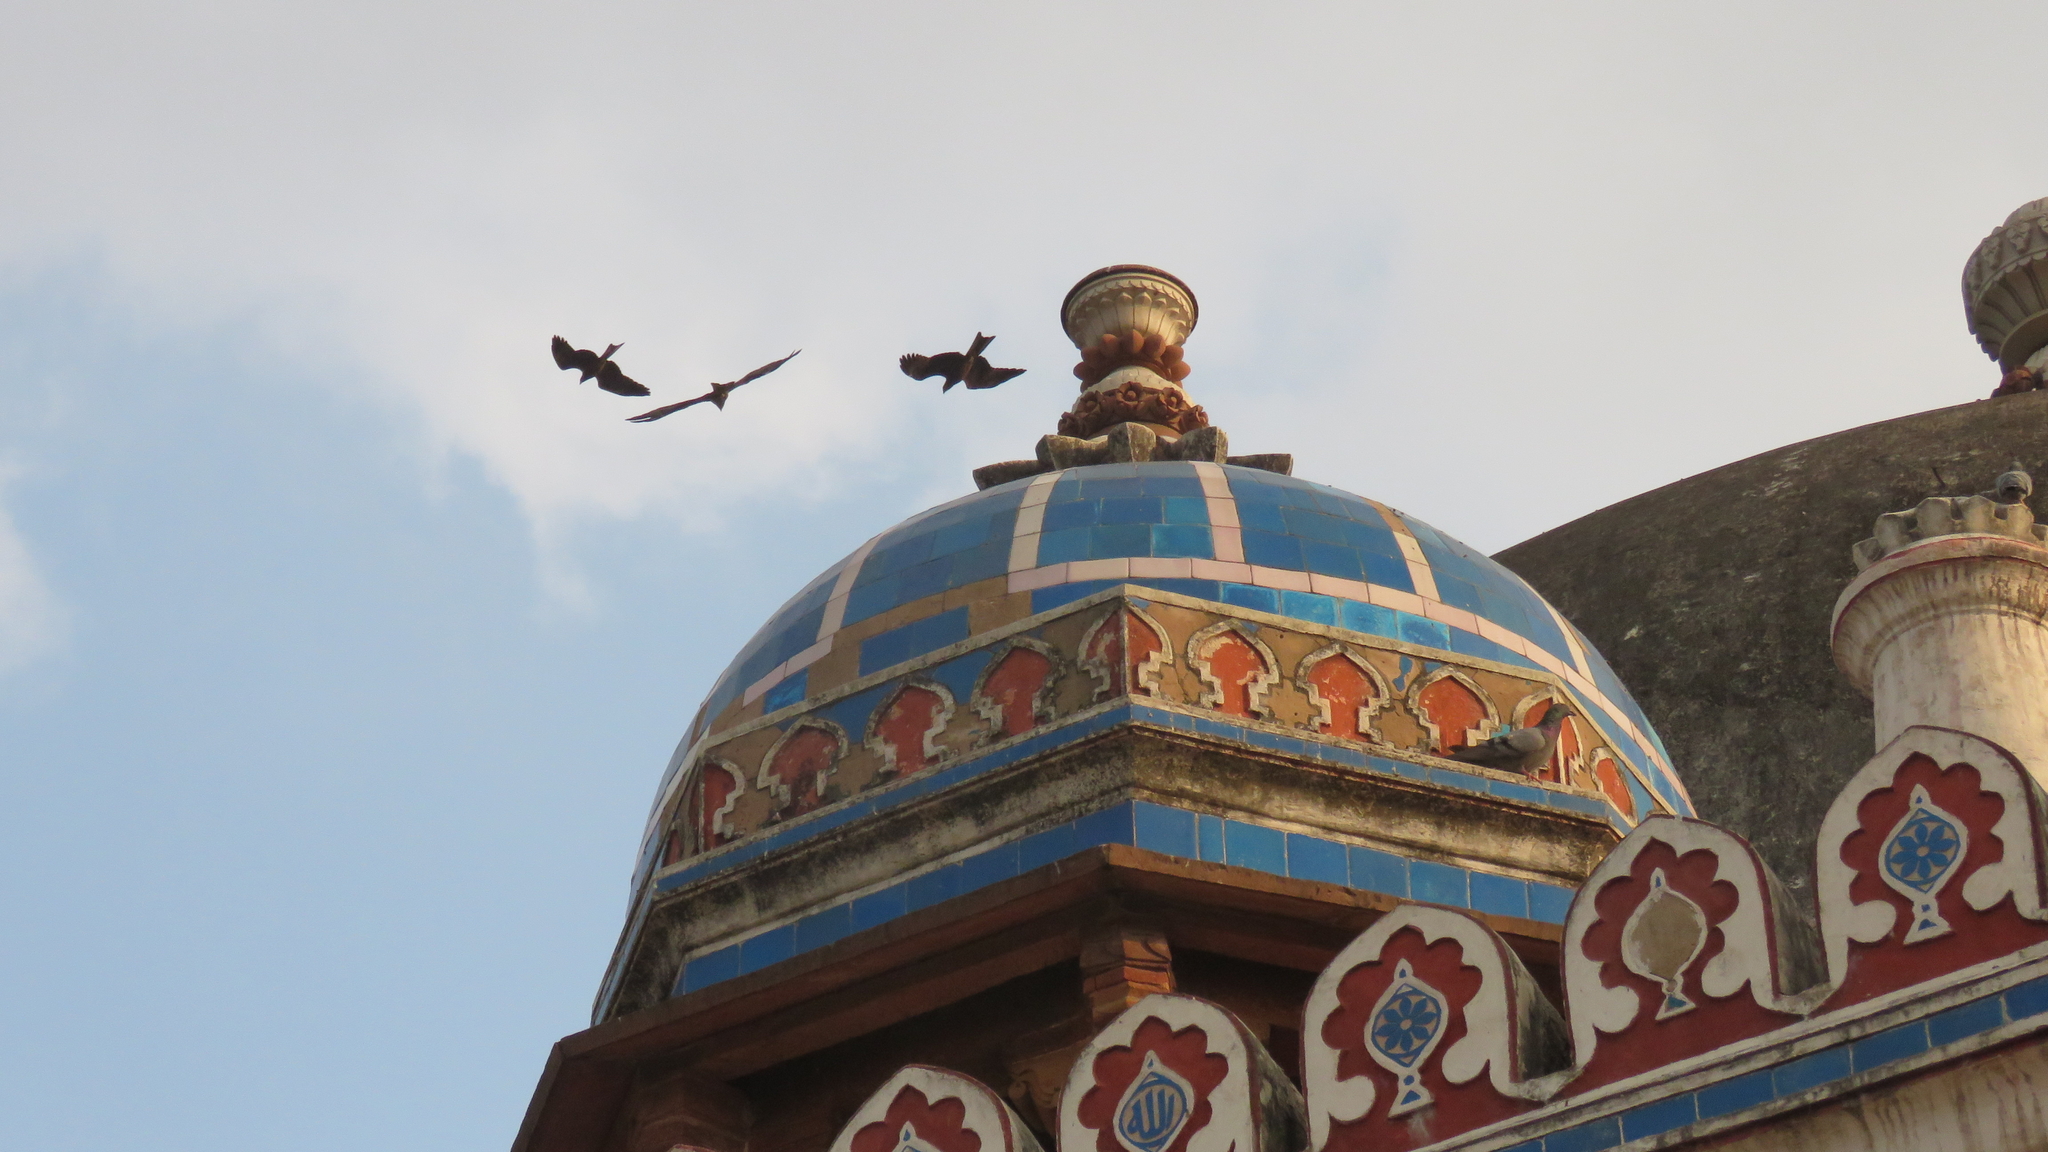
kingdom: Animalia
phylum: Chordata
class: Aves
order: Accipitriformes
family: Accipitridae
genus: Milvus
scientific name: Milvus migrans
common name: Black kite
